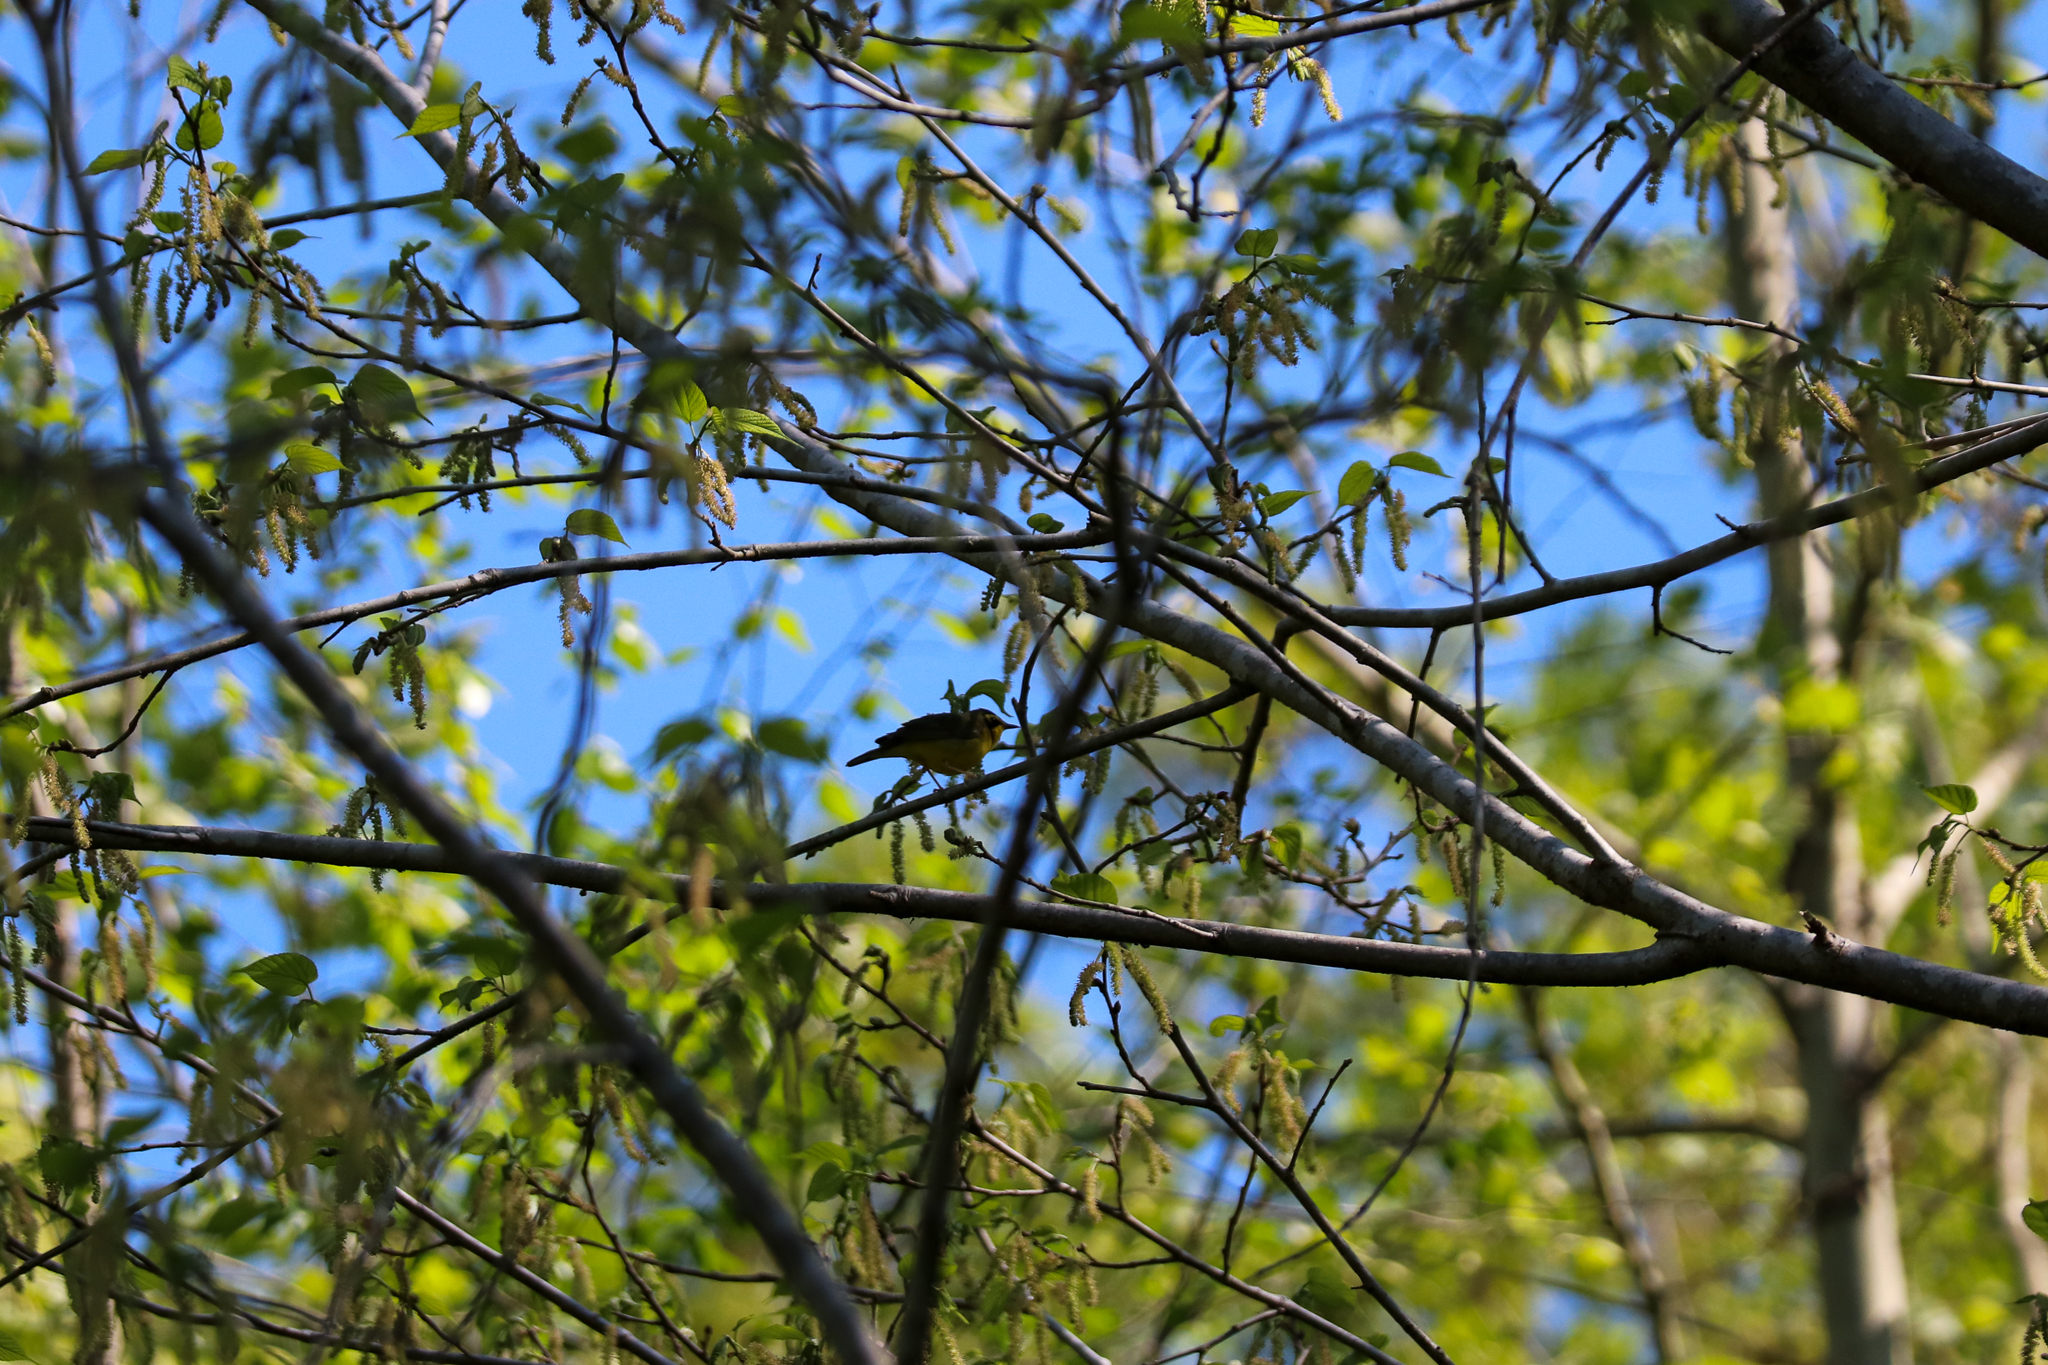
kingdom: Animalia
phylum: Chordata
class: Aves
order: Passeriformes
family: Parulidae
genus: Geothlypis
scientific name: Geothlypis formosa
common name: Kentucky warbler
